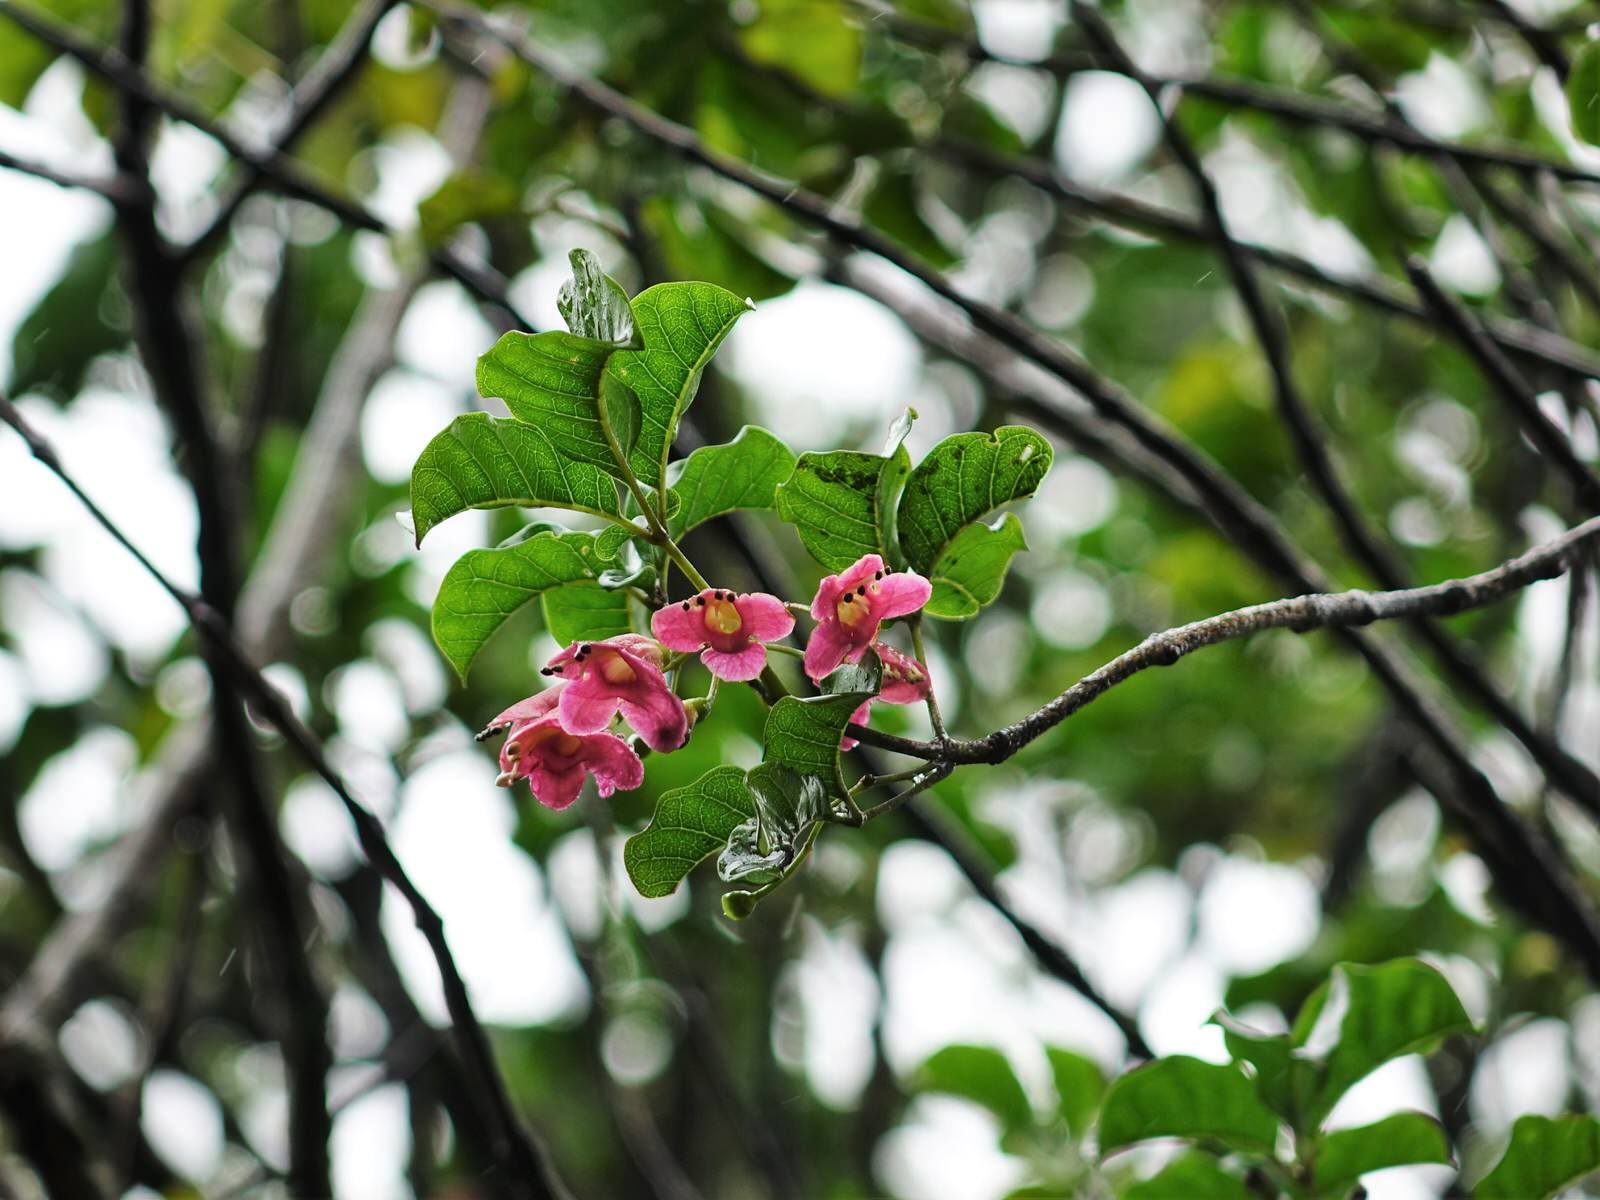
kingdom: Plantae
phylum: Tracheophyta
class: Magnoliopsida
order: Lamiales
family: Lamiaceae
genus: Vitex
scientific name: Vitex lucens
